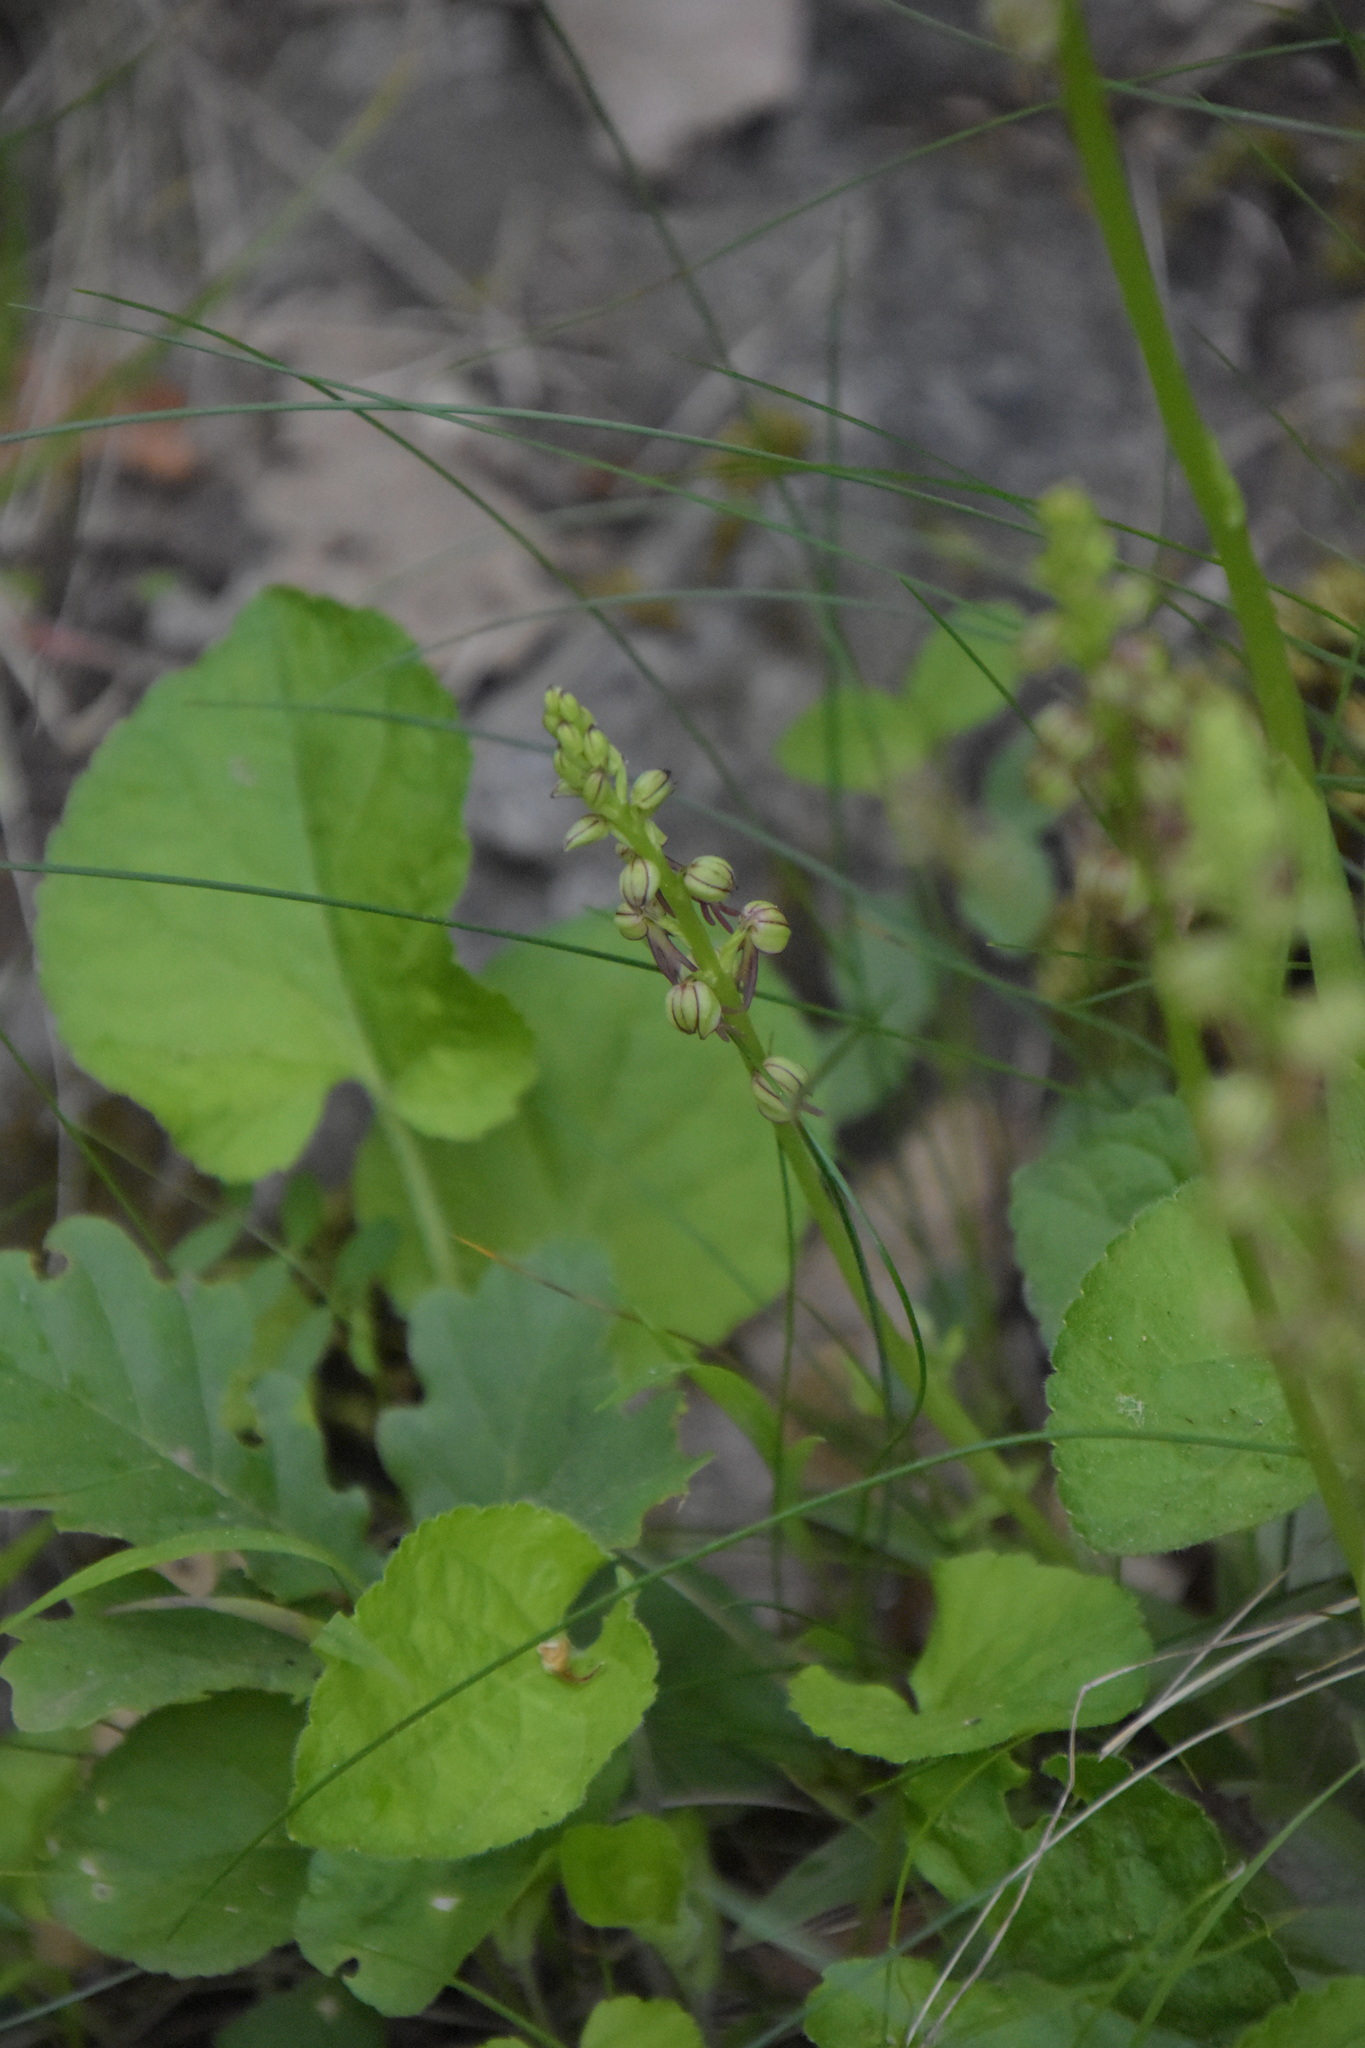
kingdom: Plantae
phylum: Tracheophyta
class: Liliopsida
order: Asparagales
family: Orchidaceae
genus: Orchis
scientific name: Orchis anthropophora
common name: Man orchid
